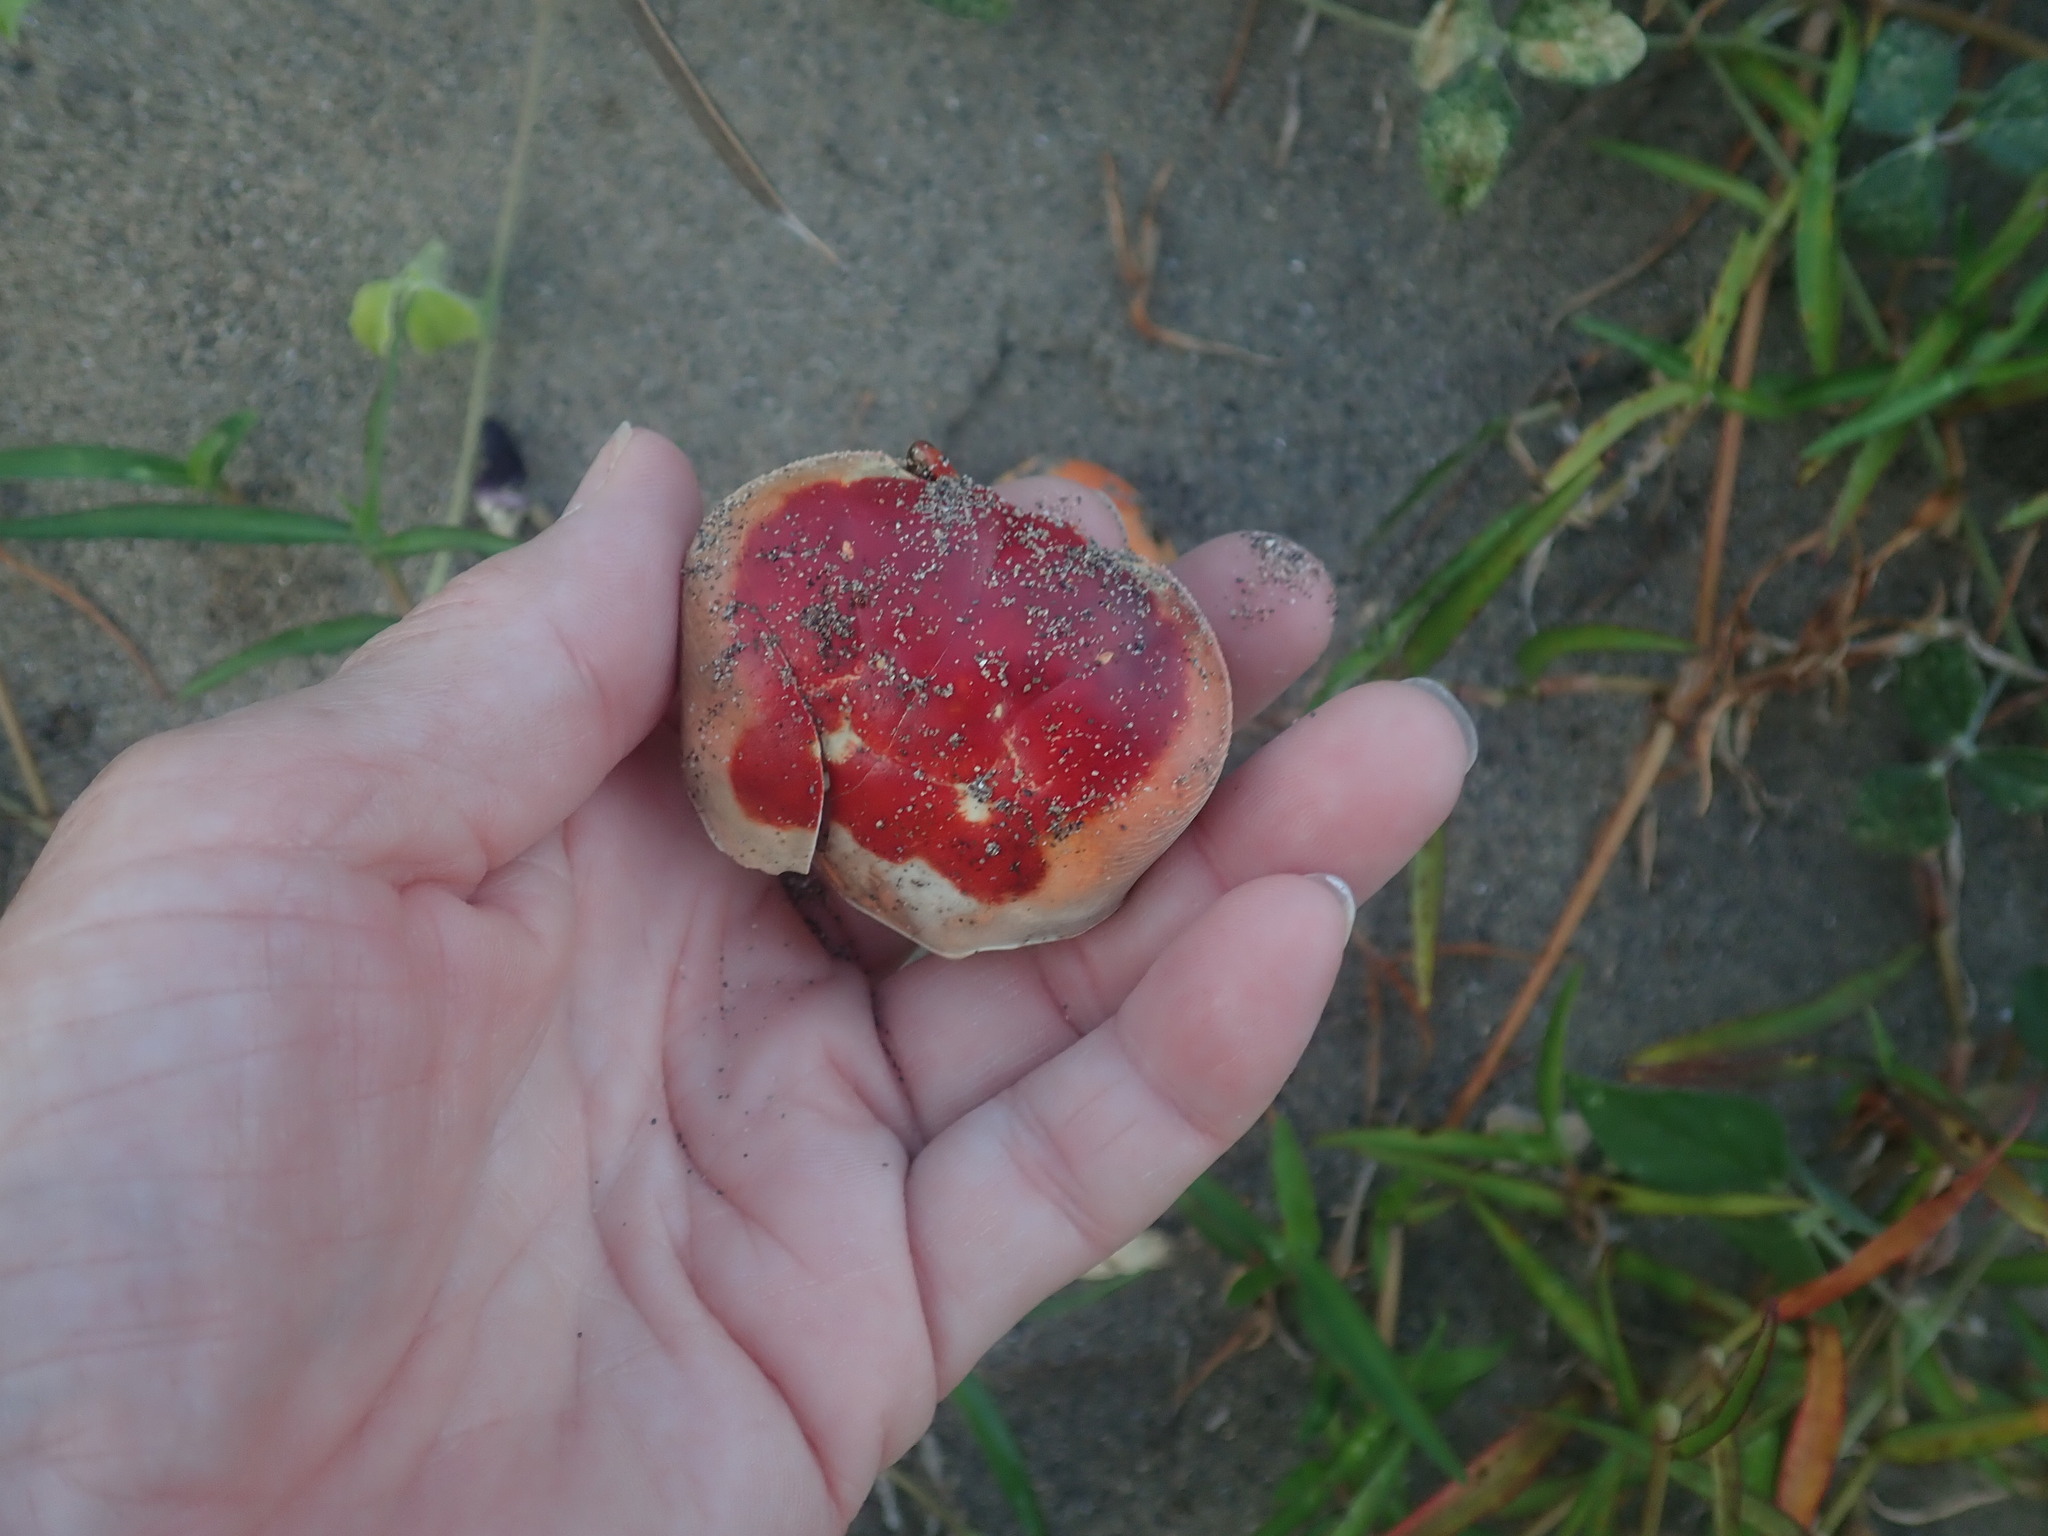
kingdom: Animalia
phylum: Arthropoda
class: Malacostraca
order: Decapoda
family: Gecarcinidae
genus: Gecarcinus
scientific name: Gecarcinus lateralis
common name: Bermuda land crab
